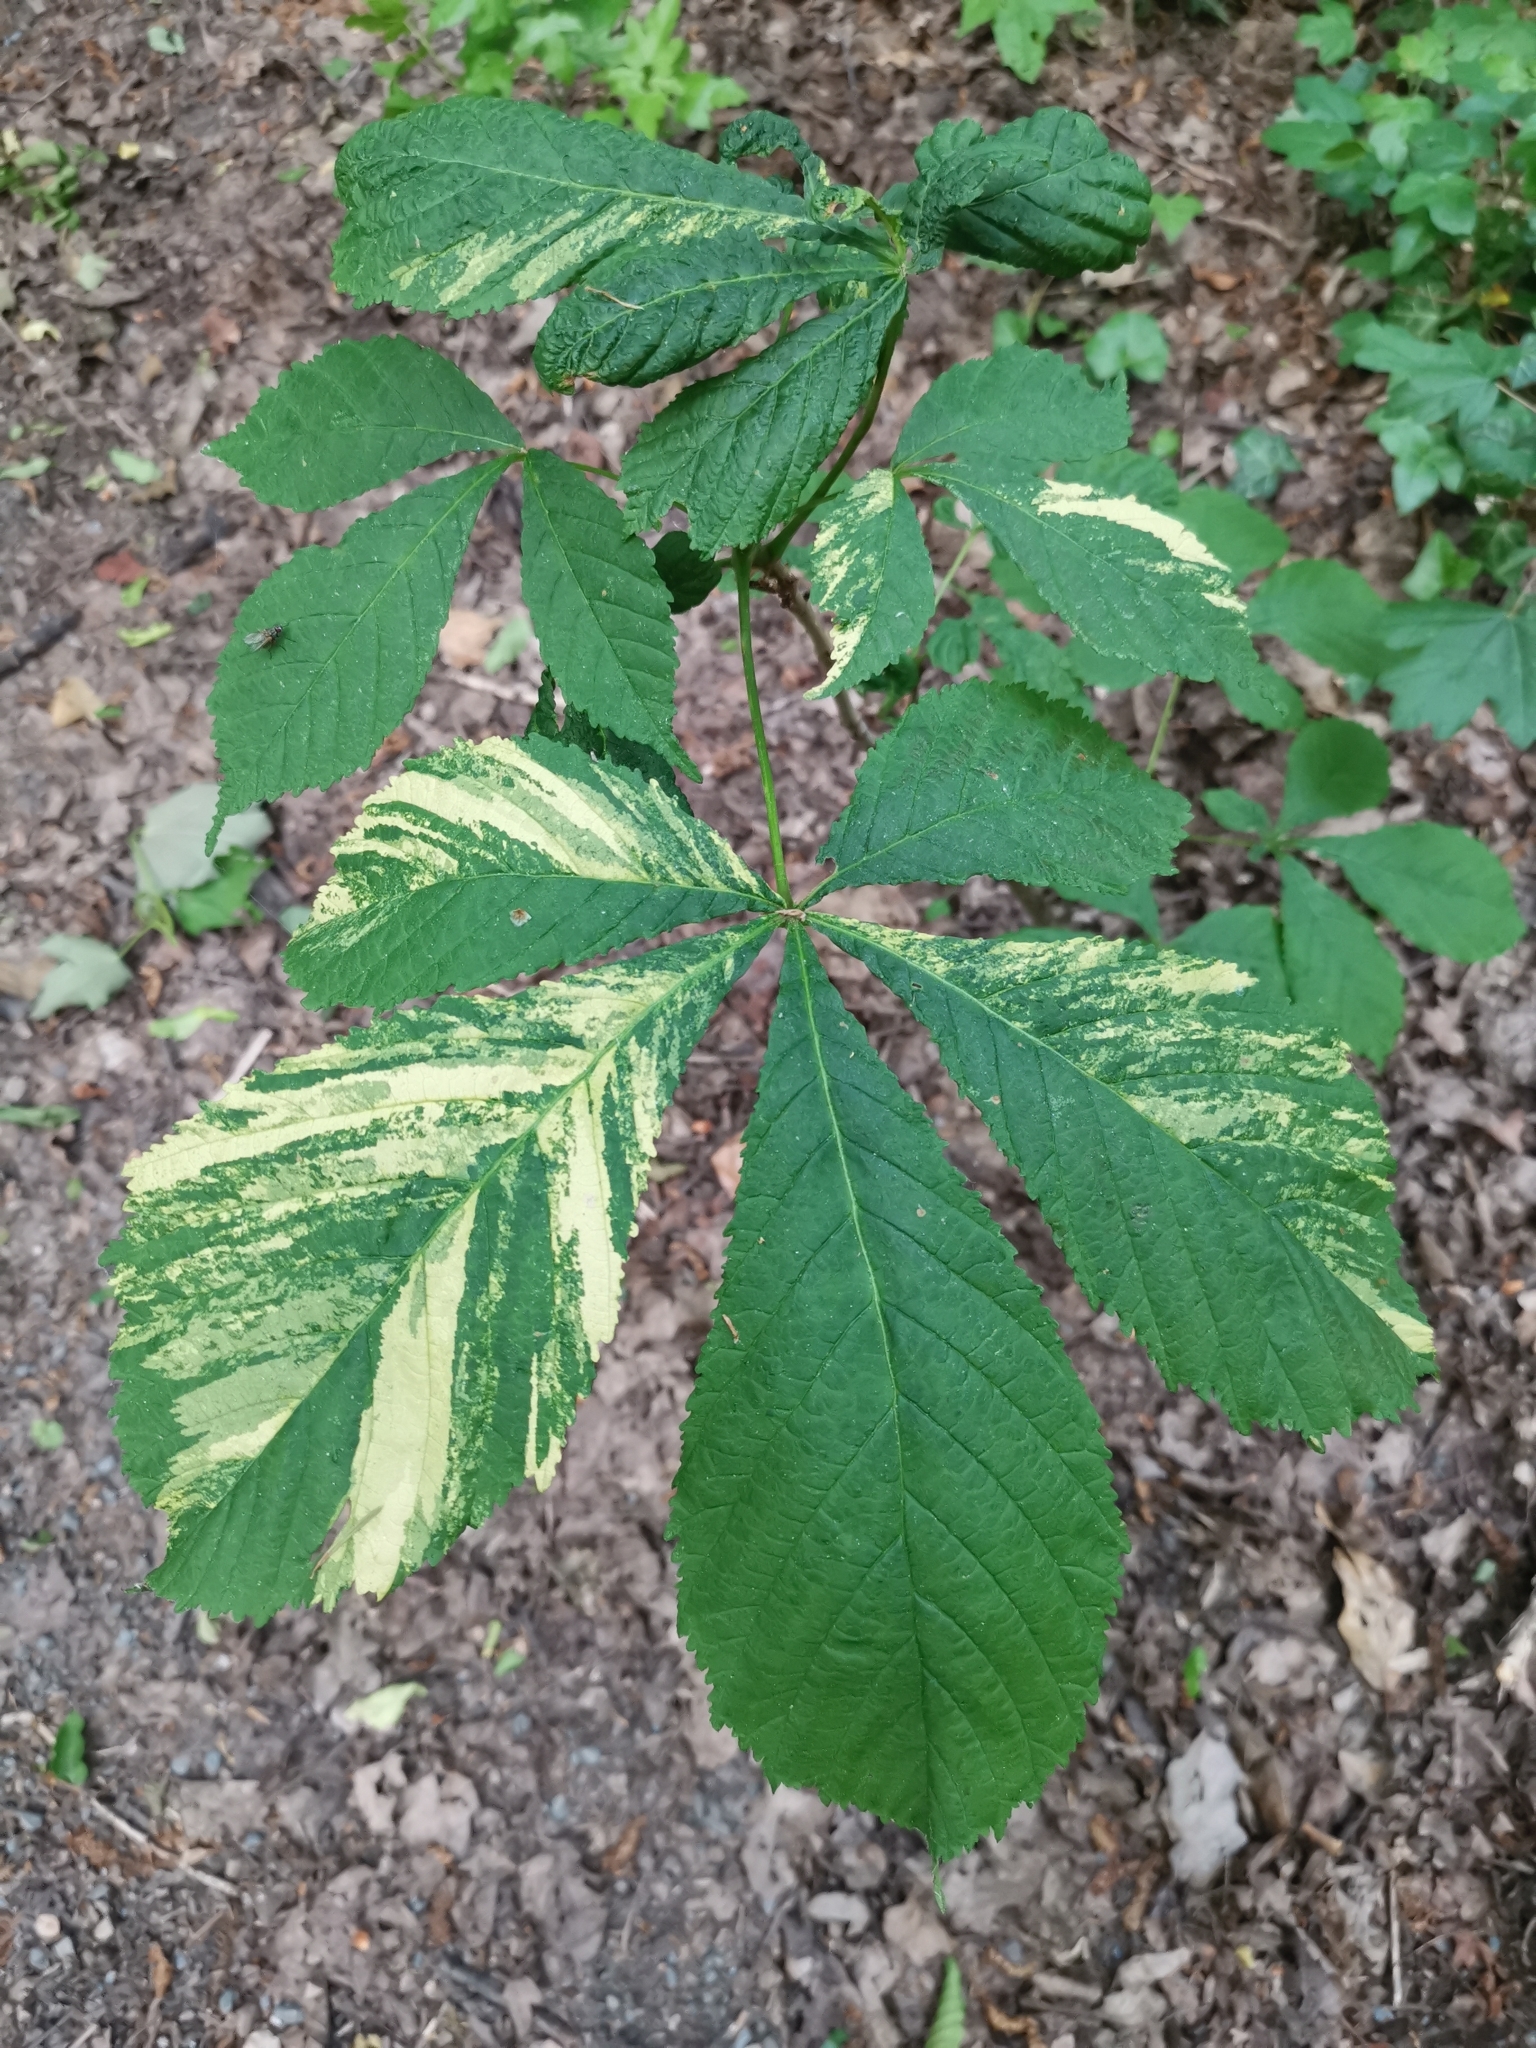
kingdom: Plantae
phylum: Tracheophyta
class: Magnoliopsida
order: Sapindales
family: Sapindaceae
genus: Aesculus
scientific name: Aesculus hippocastanum
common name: Horse-chestnut
